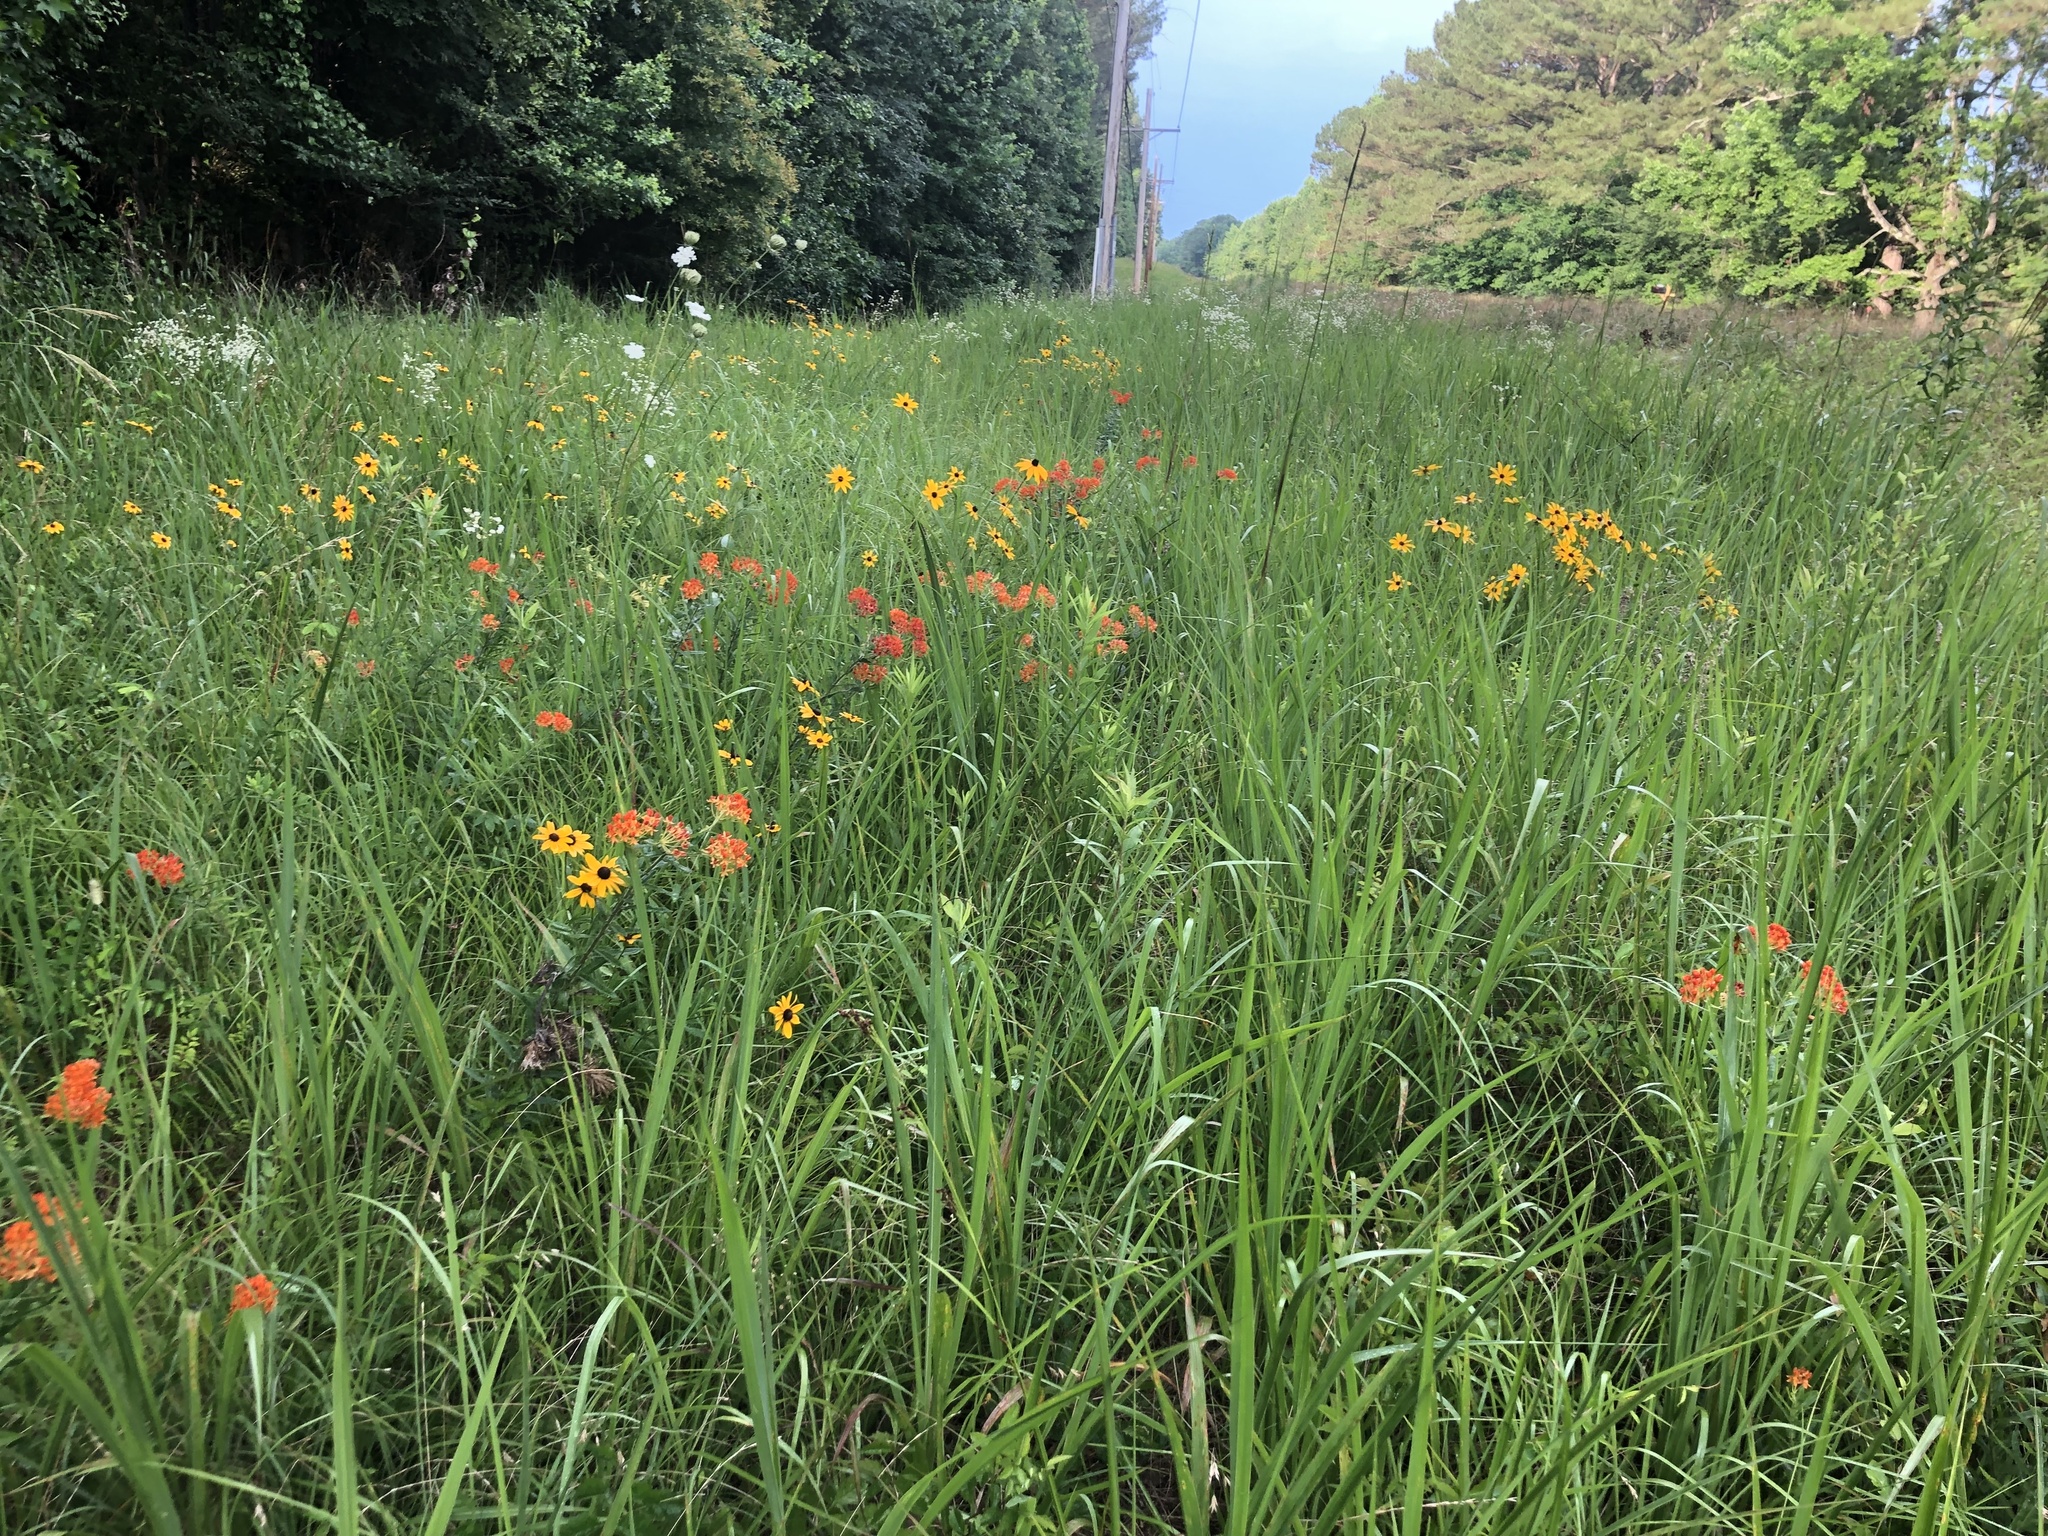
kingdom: Plantae
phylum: Tracheophyta
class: Magnoliopsida
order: Gentianales
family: Apocynaceae
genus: Asclepias
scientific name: Asclepias tuberosa
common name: Butterfly milkweed
